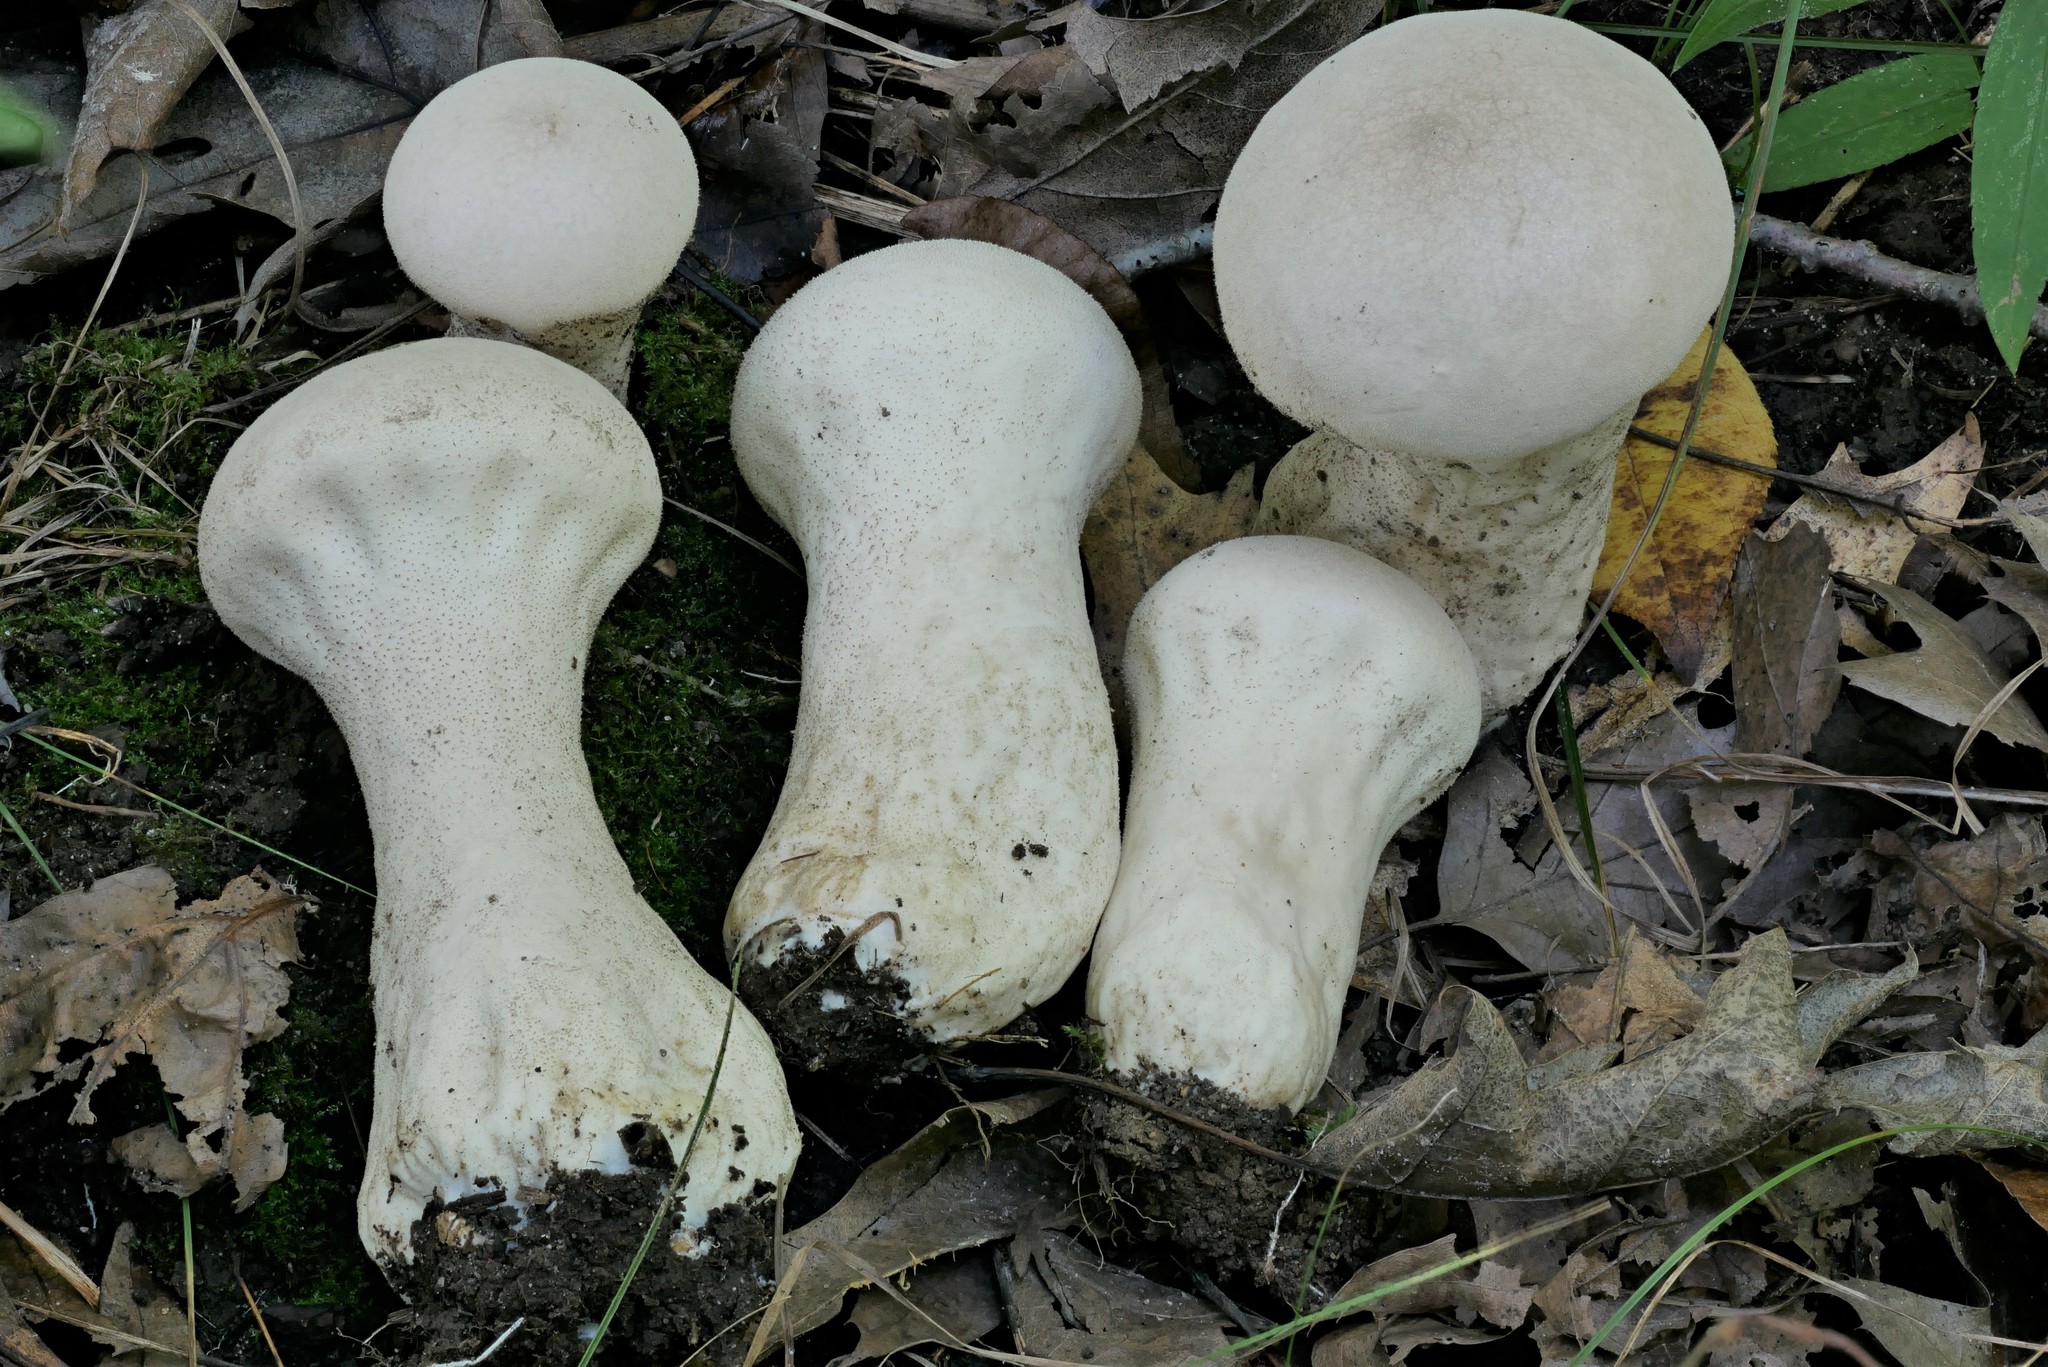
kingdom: Fungi
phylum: Basidiomycota
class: Agaricomycetes
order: Agaricales
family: Lycoperdaceae
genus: Lycoperdon
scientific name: Lycoperdon excipuliforme
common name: Pestle puffball
